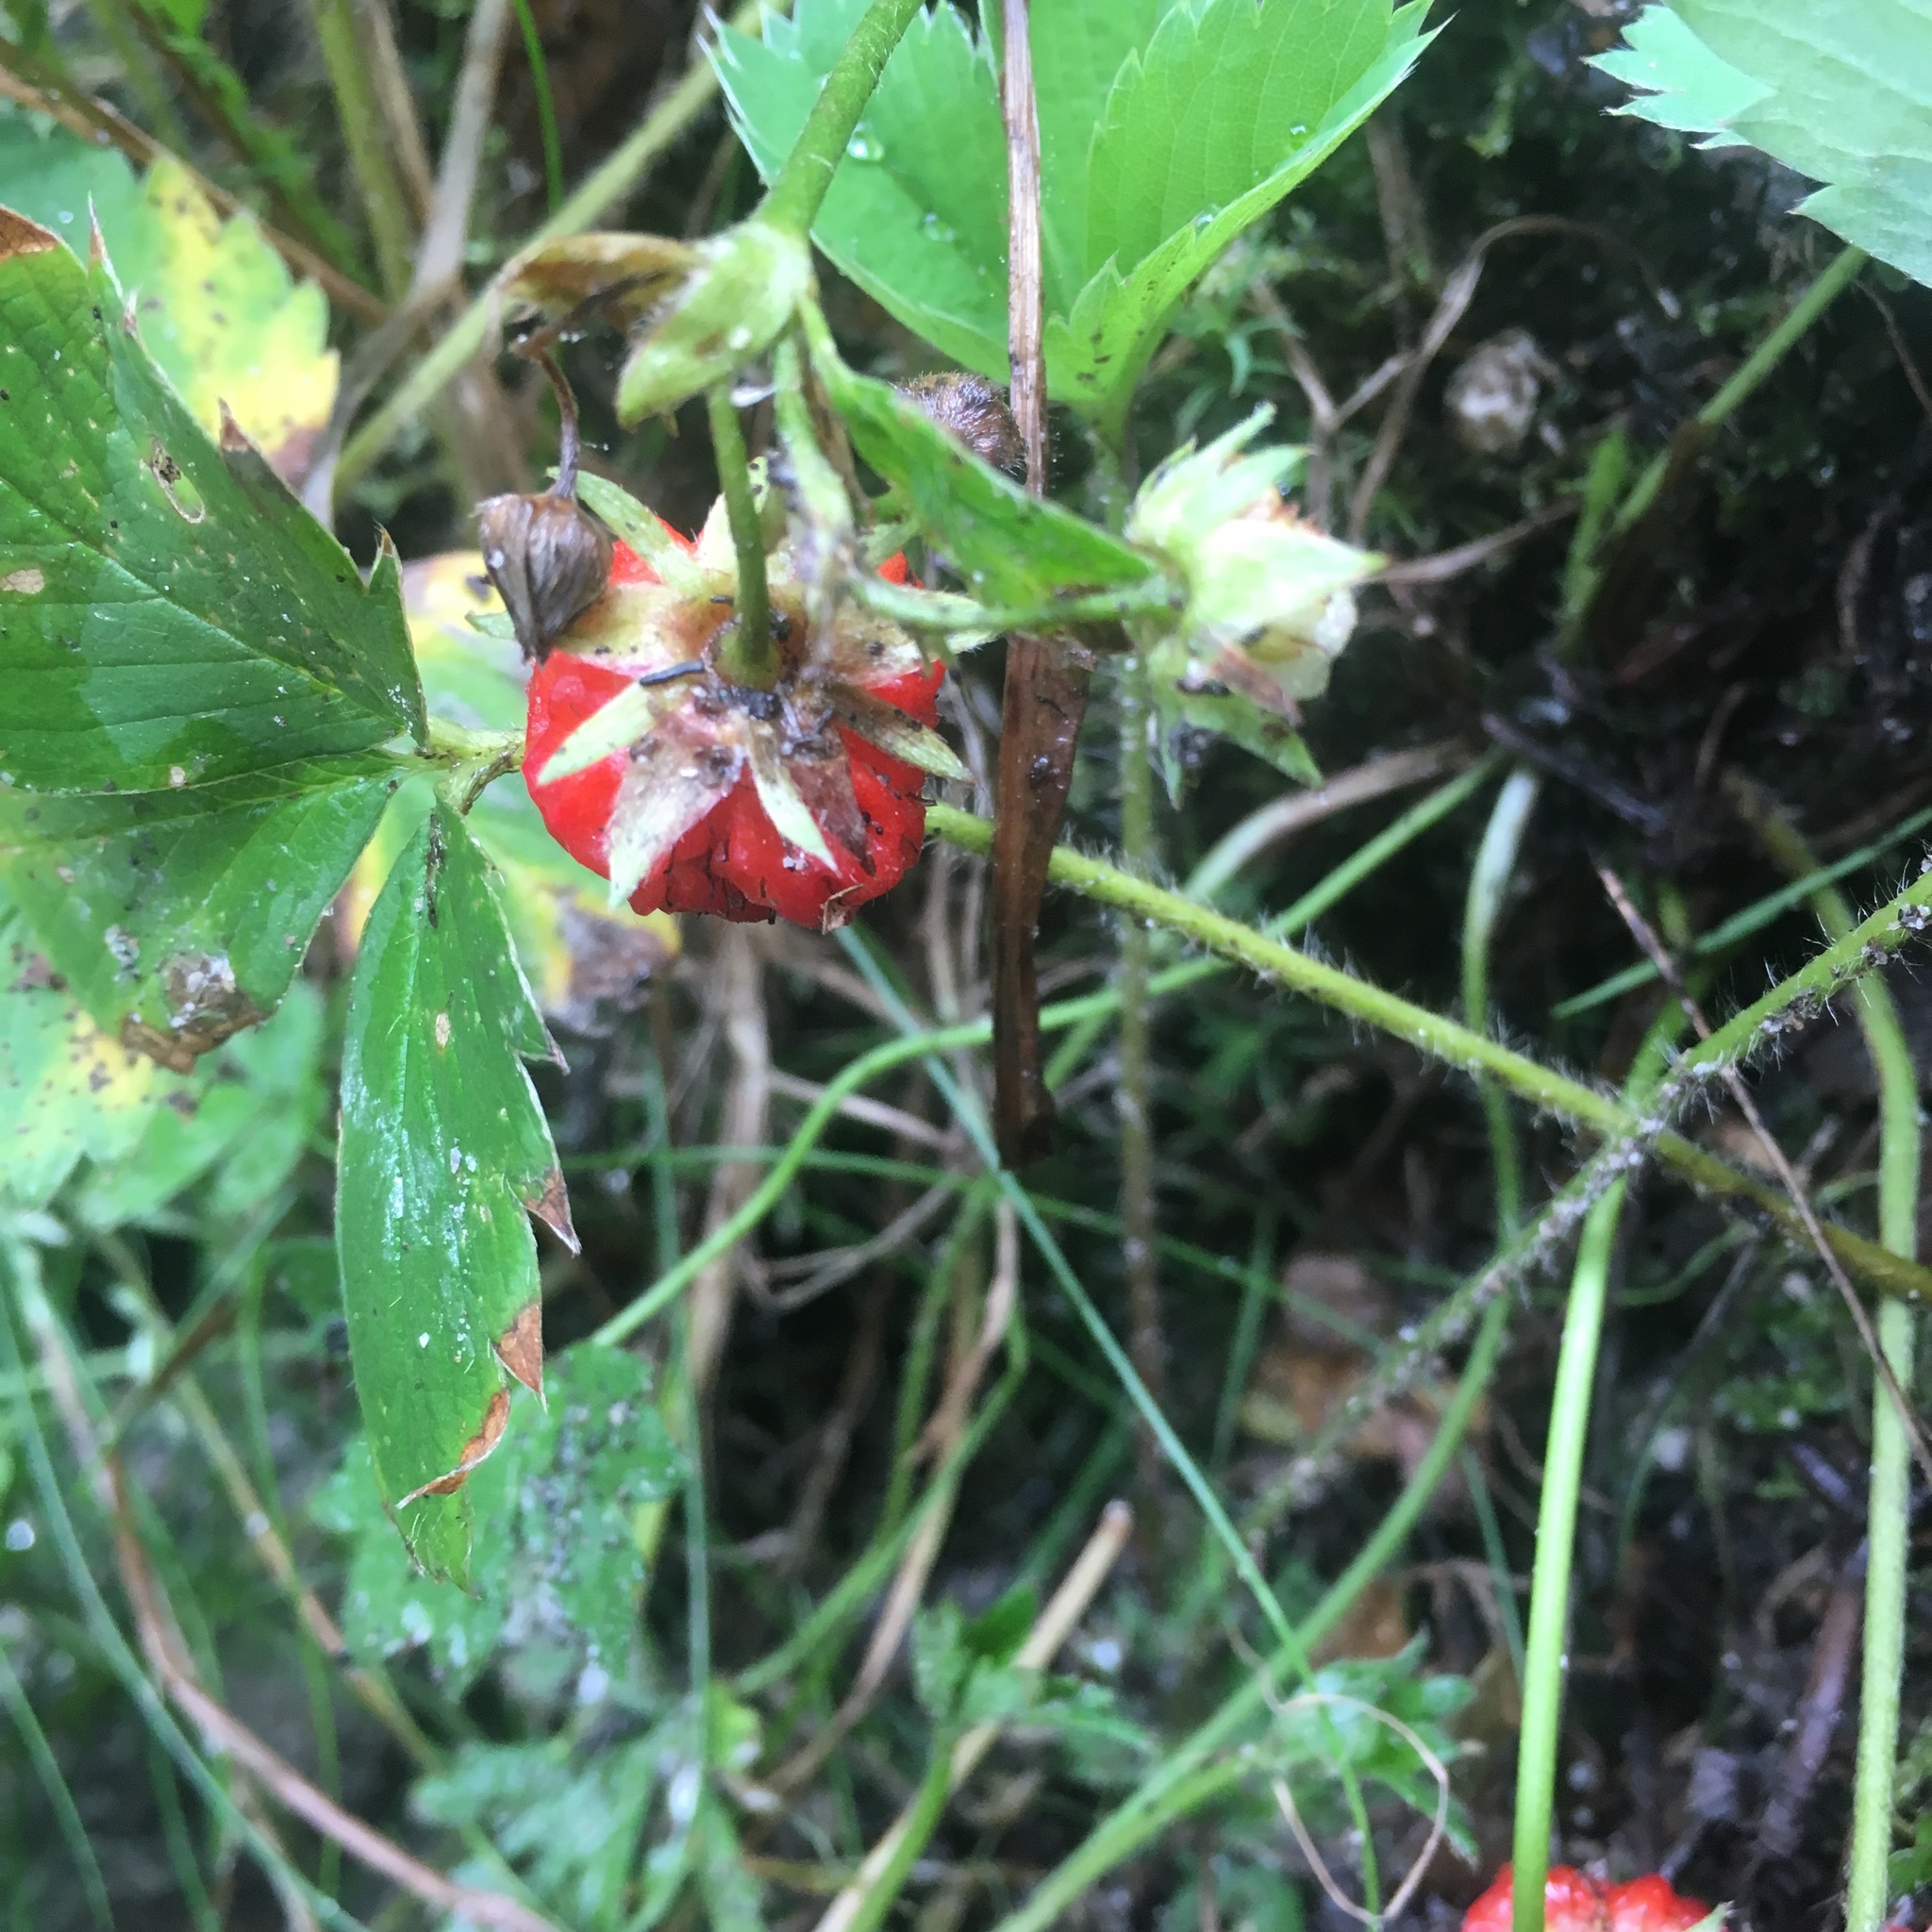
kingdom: Plantae
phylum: Tracheophyta
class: Magnoliopsida
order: Rosales
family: Rosaceae
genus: Fragaria
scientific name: Fragaria virginiana
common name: Thickleaved wild strawberry
